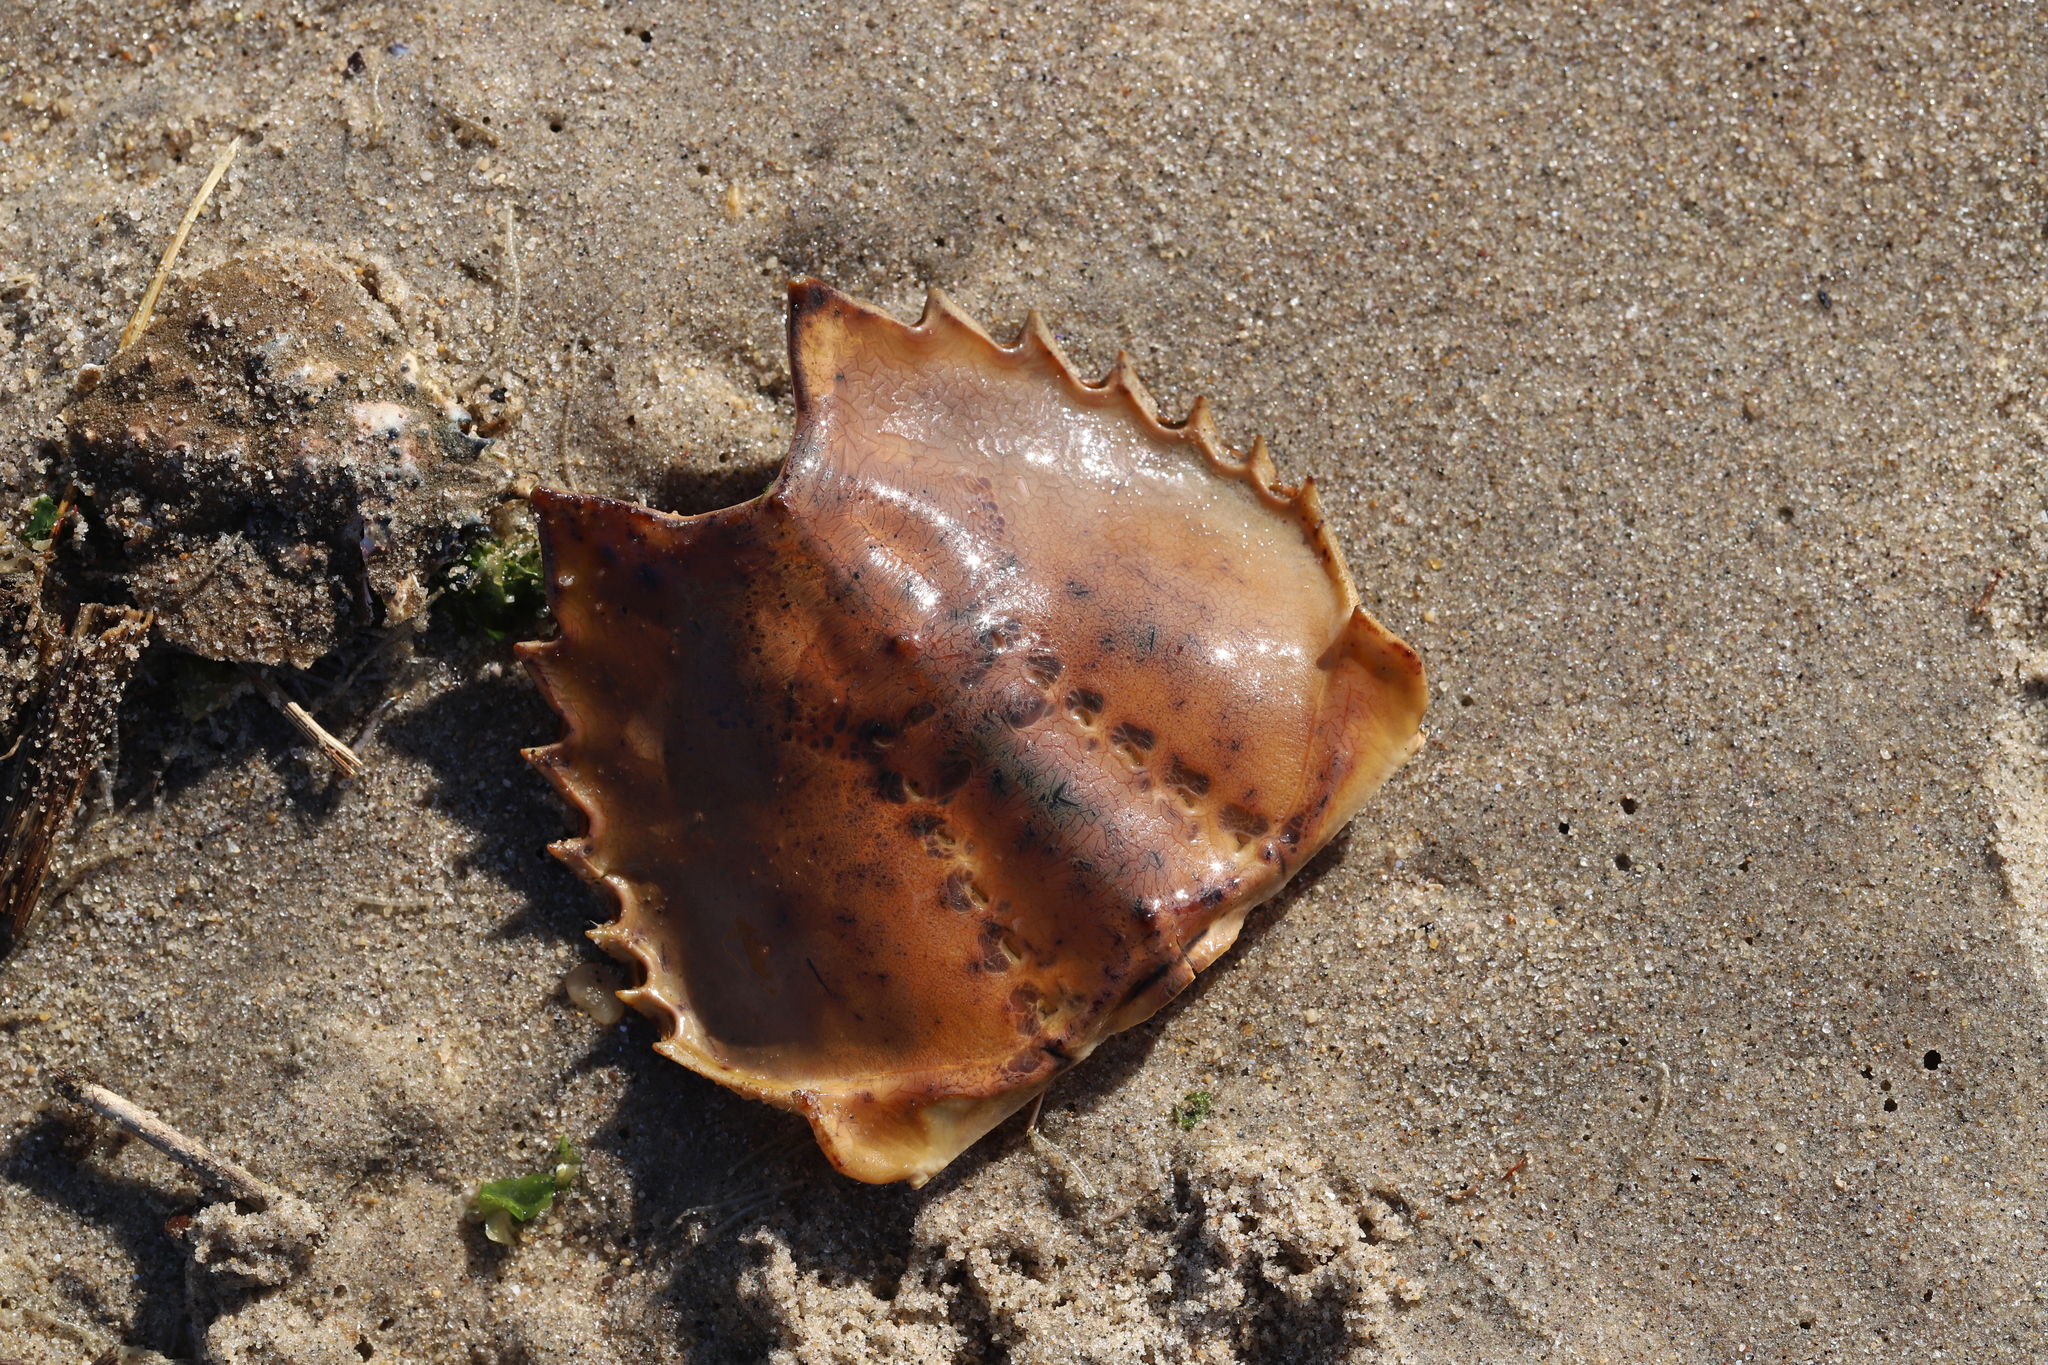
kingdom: Animalia
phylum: Arthropoda
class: Merostomata
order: Xiphosurida
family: Limulidae
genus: Limulus
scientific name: Limulus polyphemus
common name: Horseshoe crab
